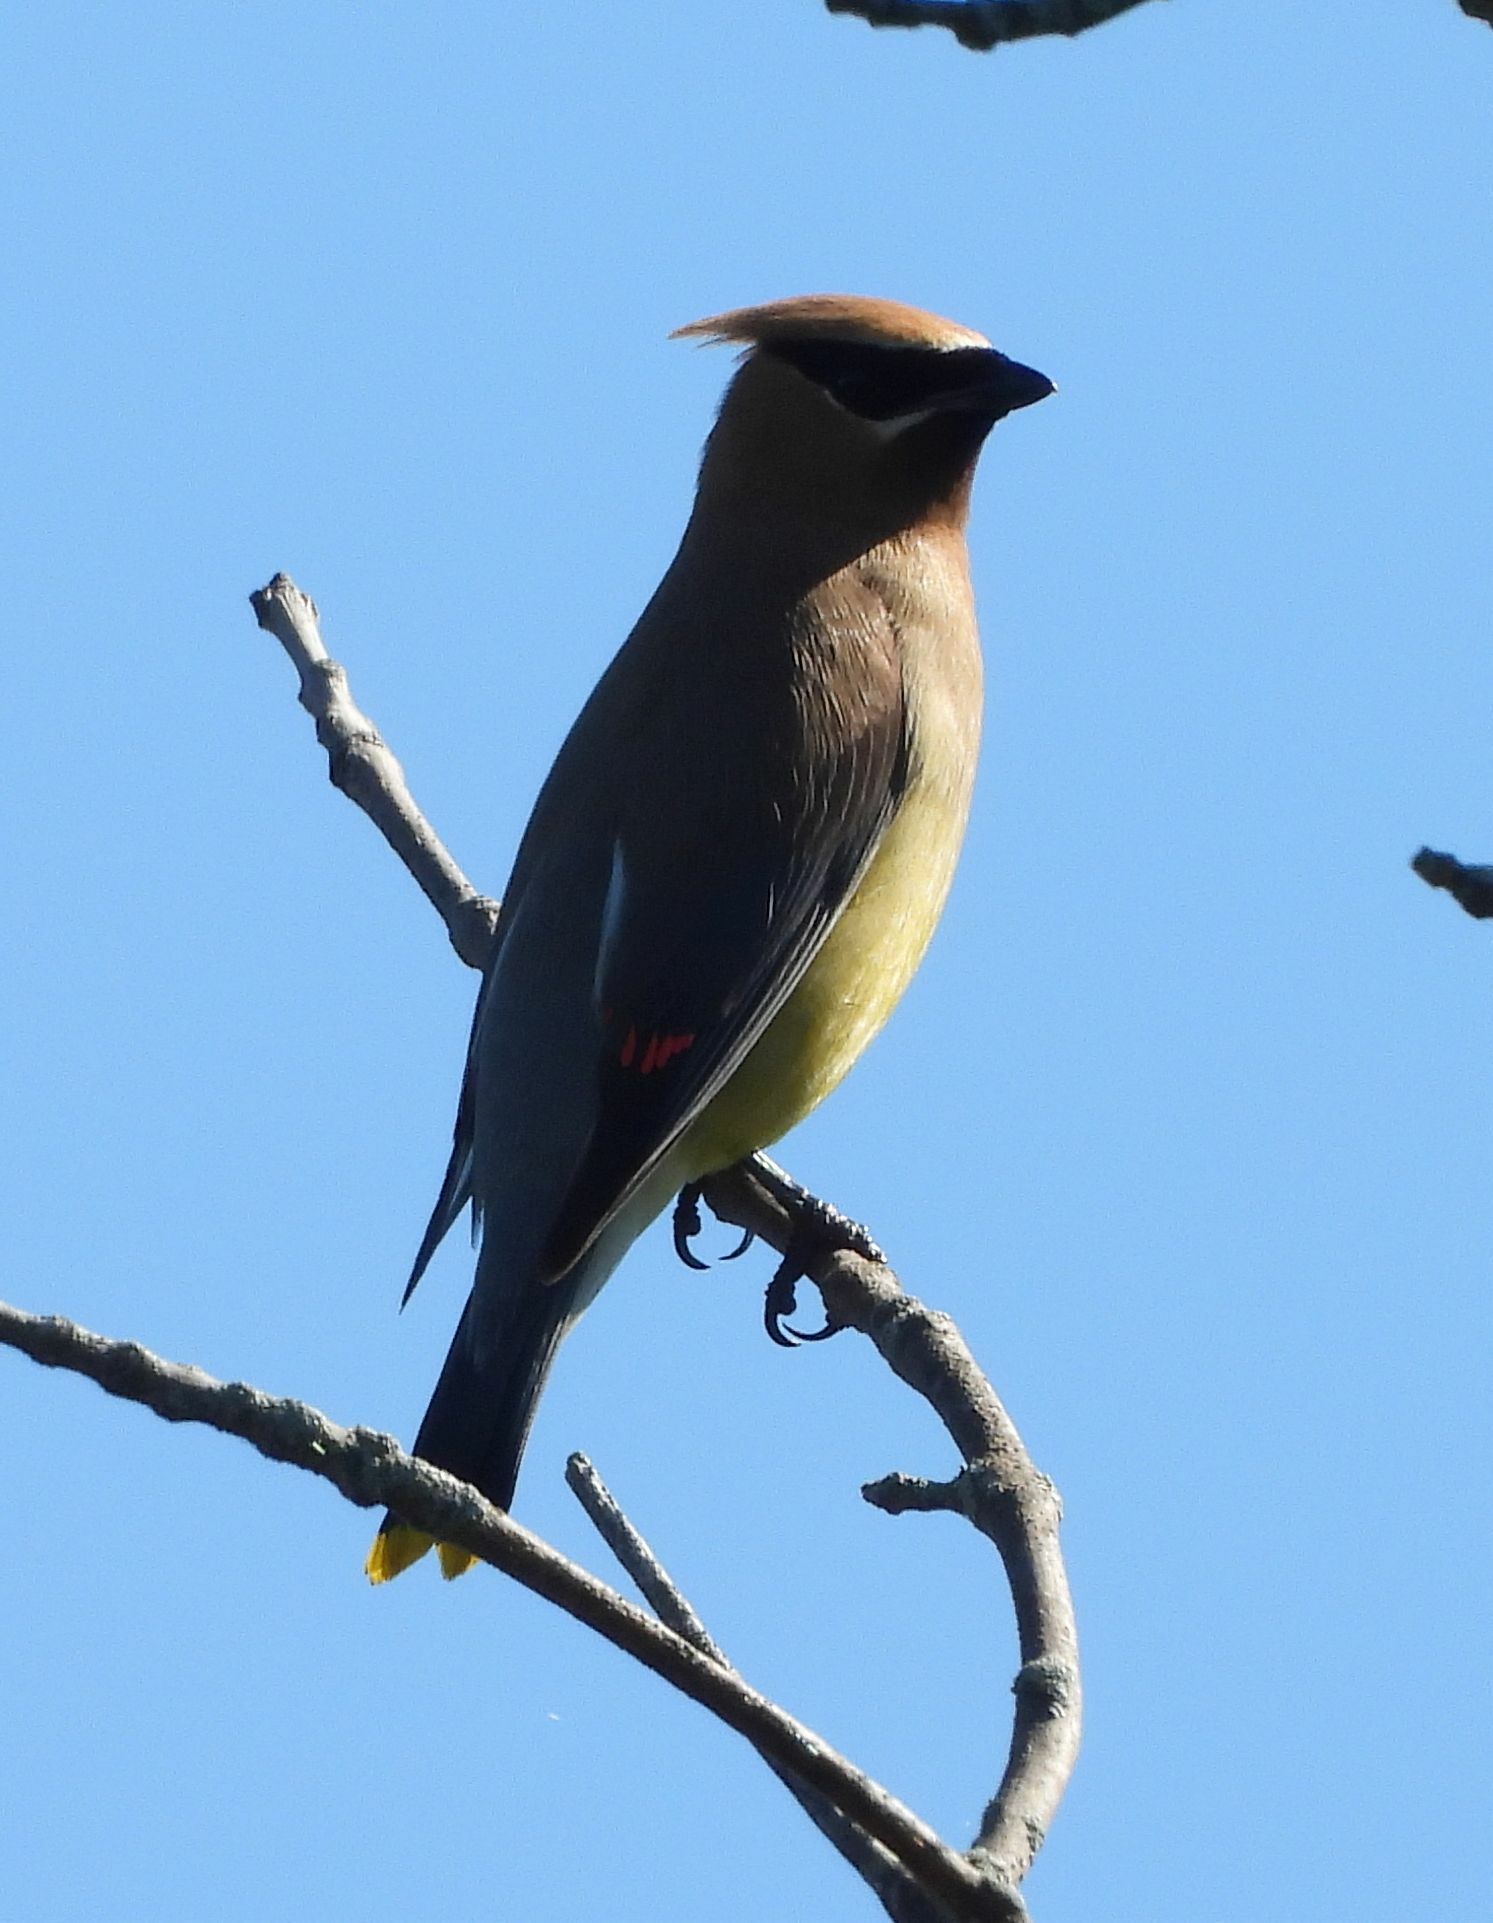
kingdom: Animalia
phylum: Chordata
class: Aves
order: Passeriformes
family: Bombycillidae
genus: Bombycilla
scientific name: Bombycilla cedrorum
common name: Cedar waxwing
